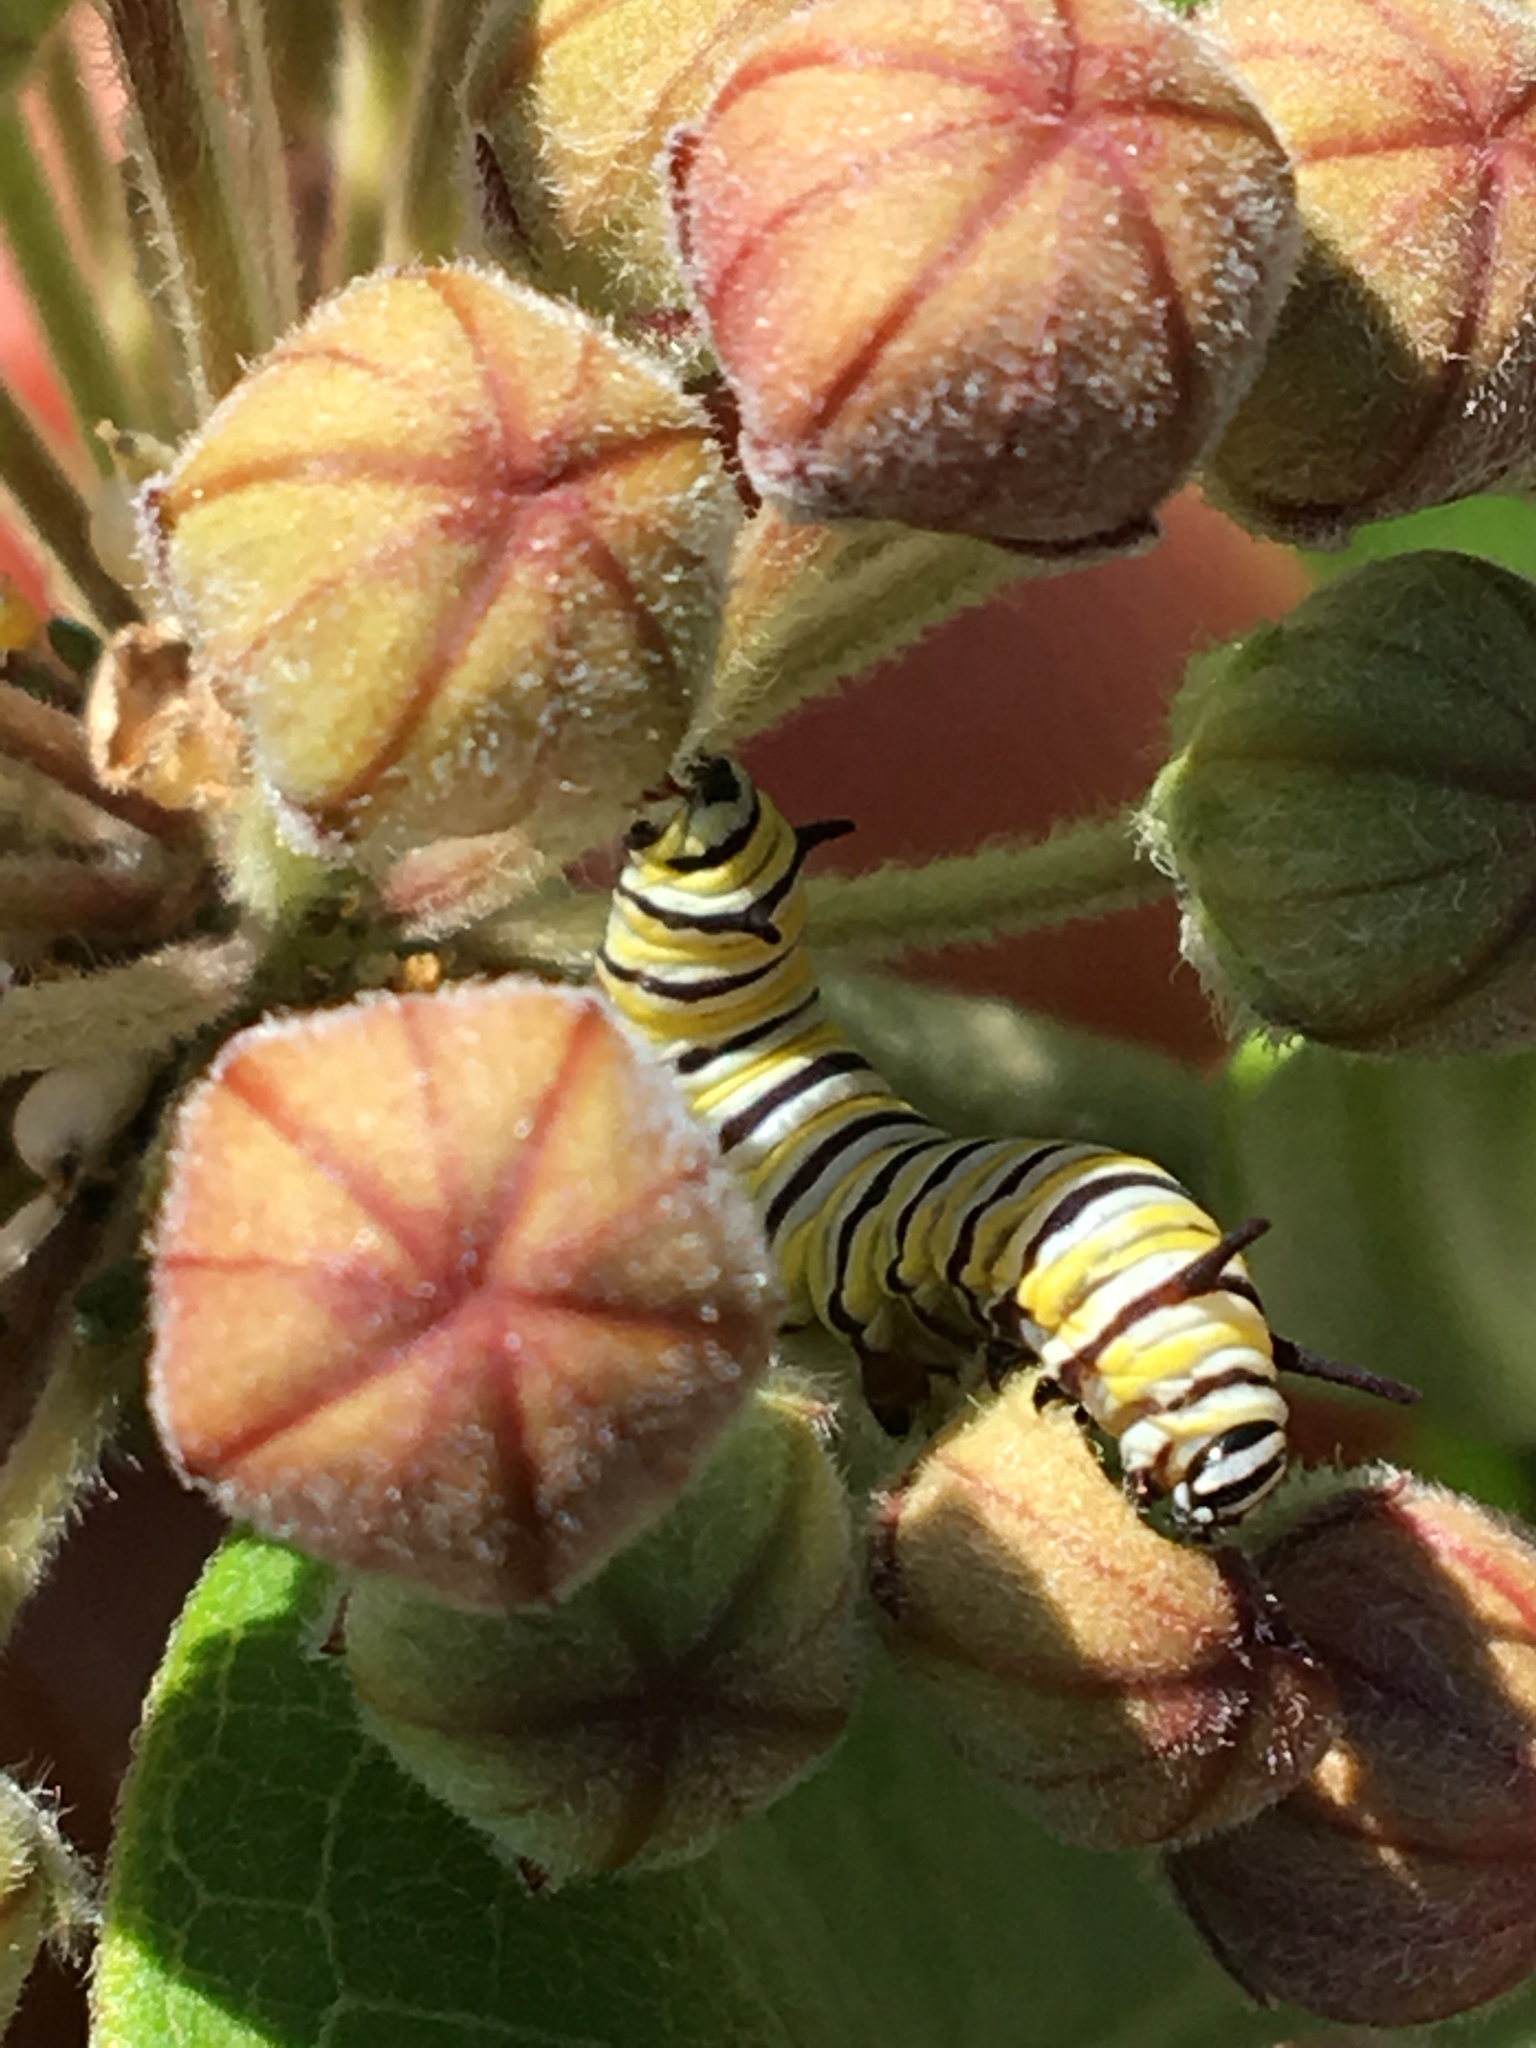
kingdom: Animalia
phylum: Arthropoda
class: Insecta
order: Lepidoptera
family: Nymphalidae
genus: Danaus
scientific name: Danaus plexippus
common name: Monarch
